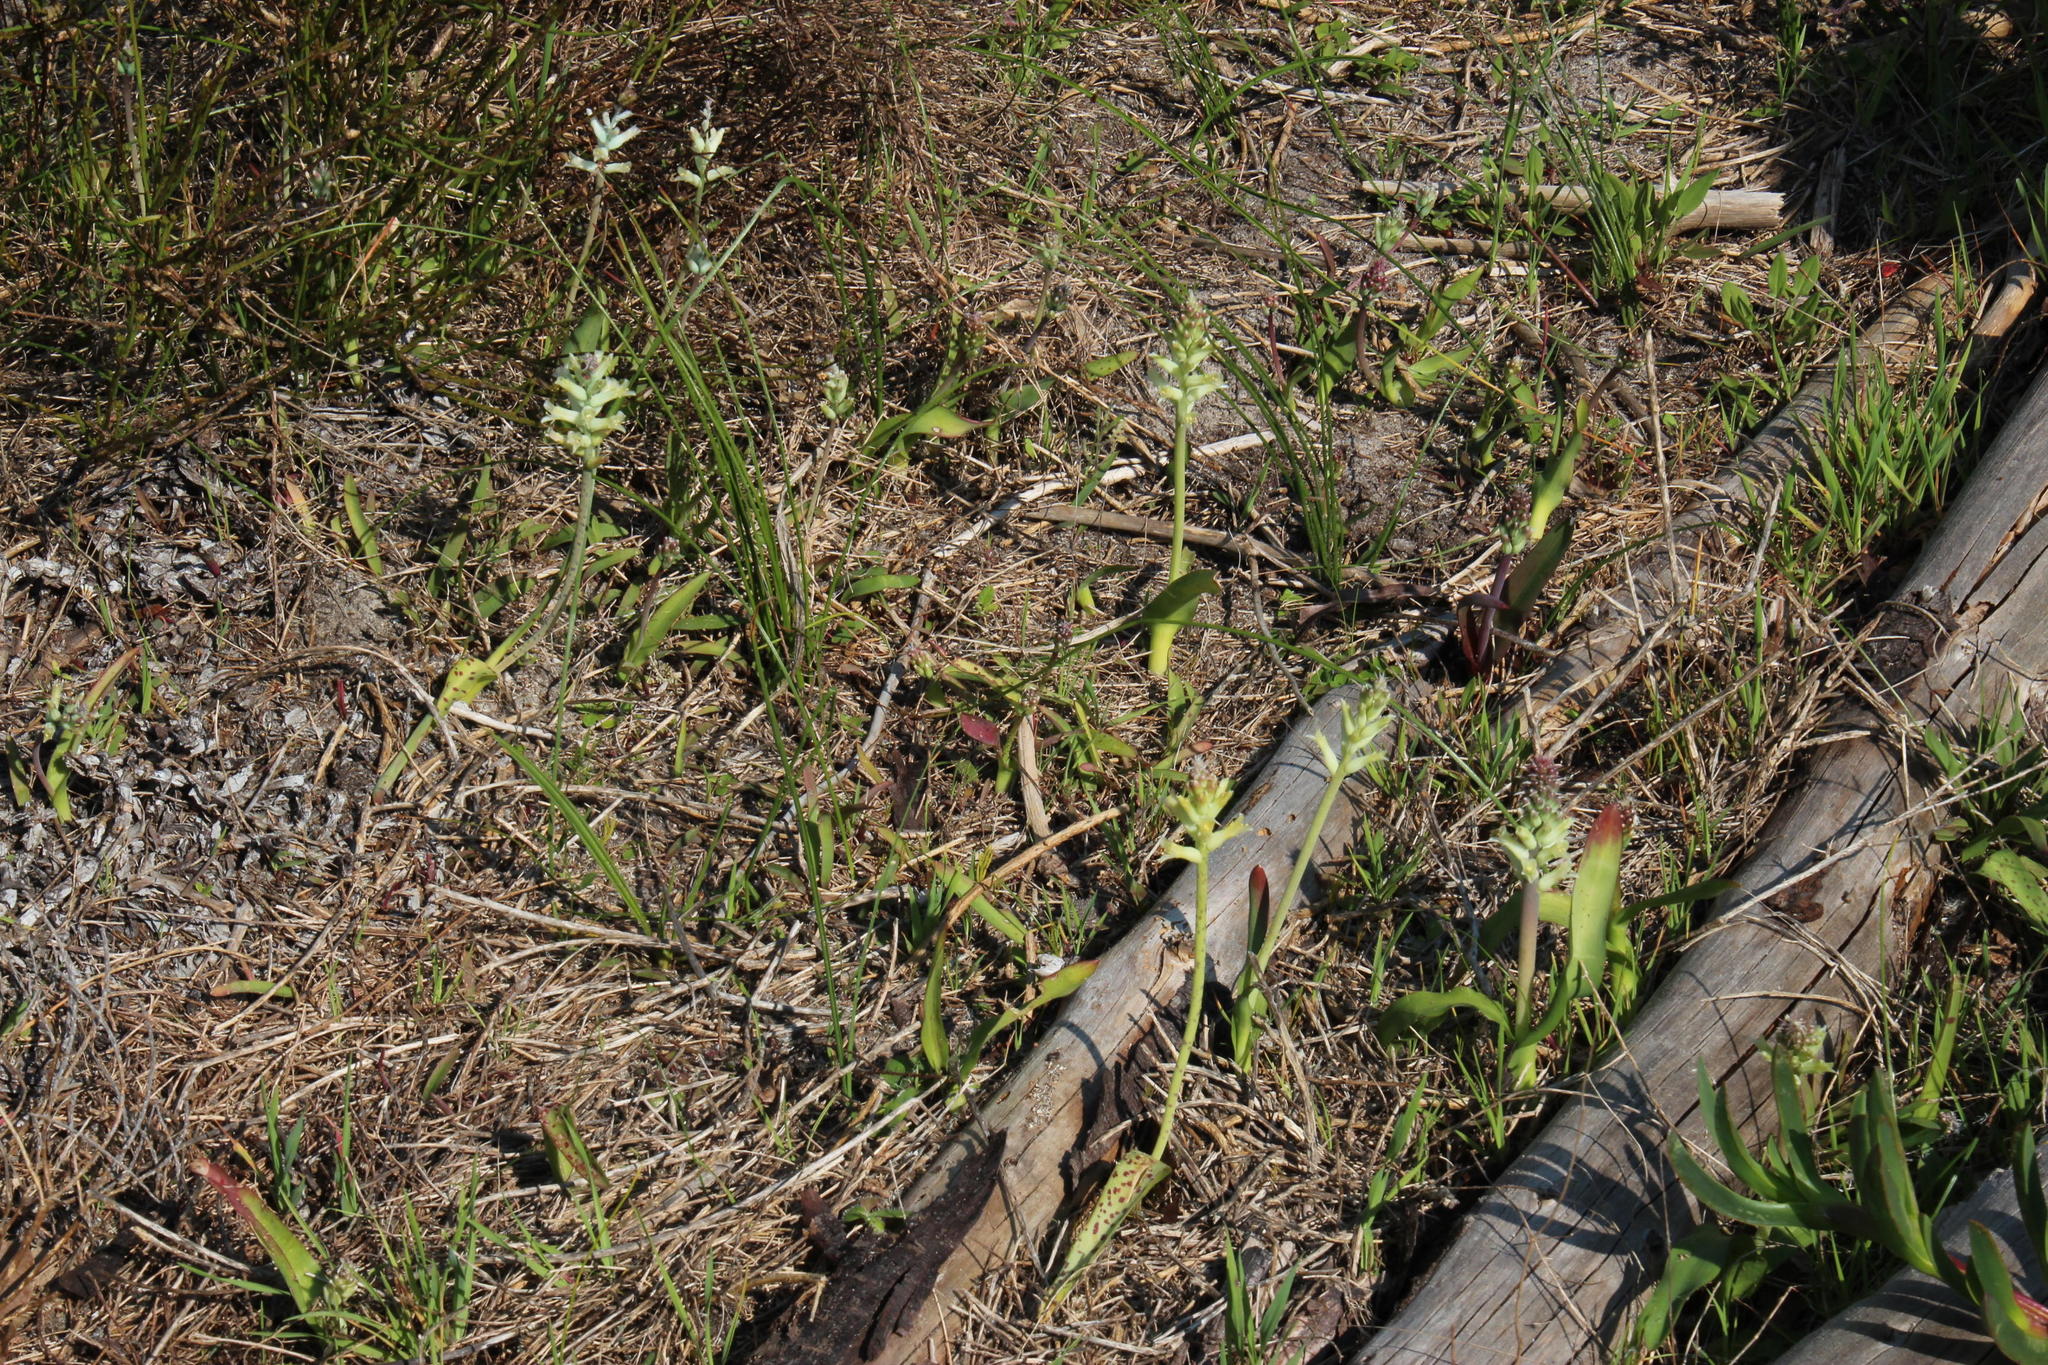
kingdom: Plantae
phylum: Tracheophyta
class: Liliopsida
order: Asparagales
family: Asparagaceae
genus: Lachenalia
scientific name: Lachenalia orchioides
